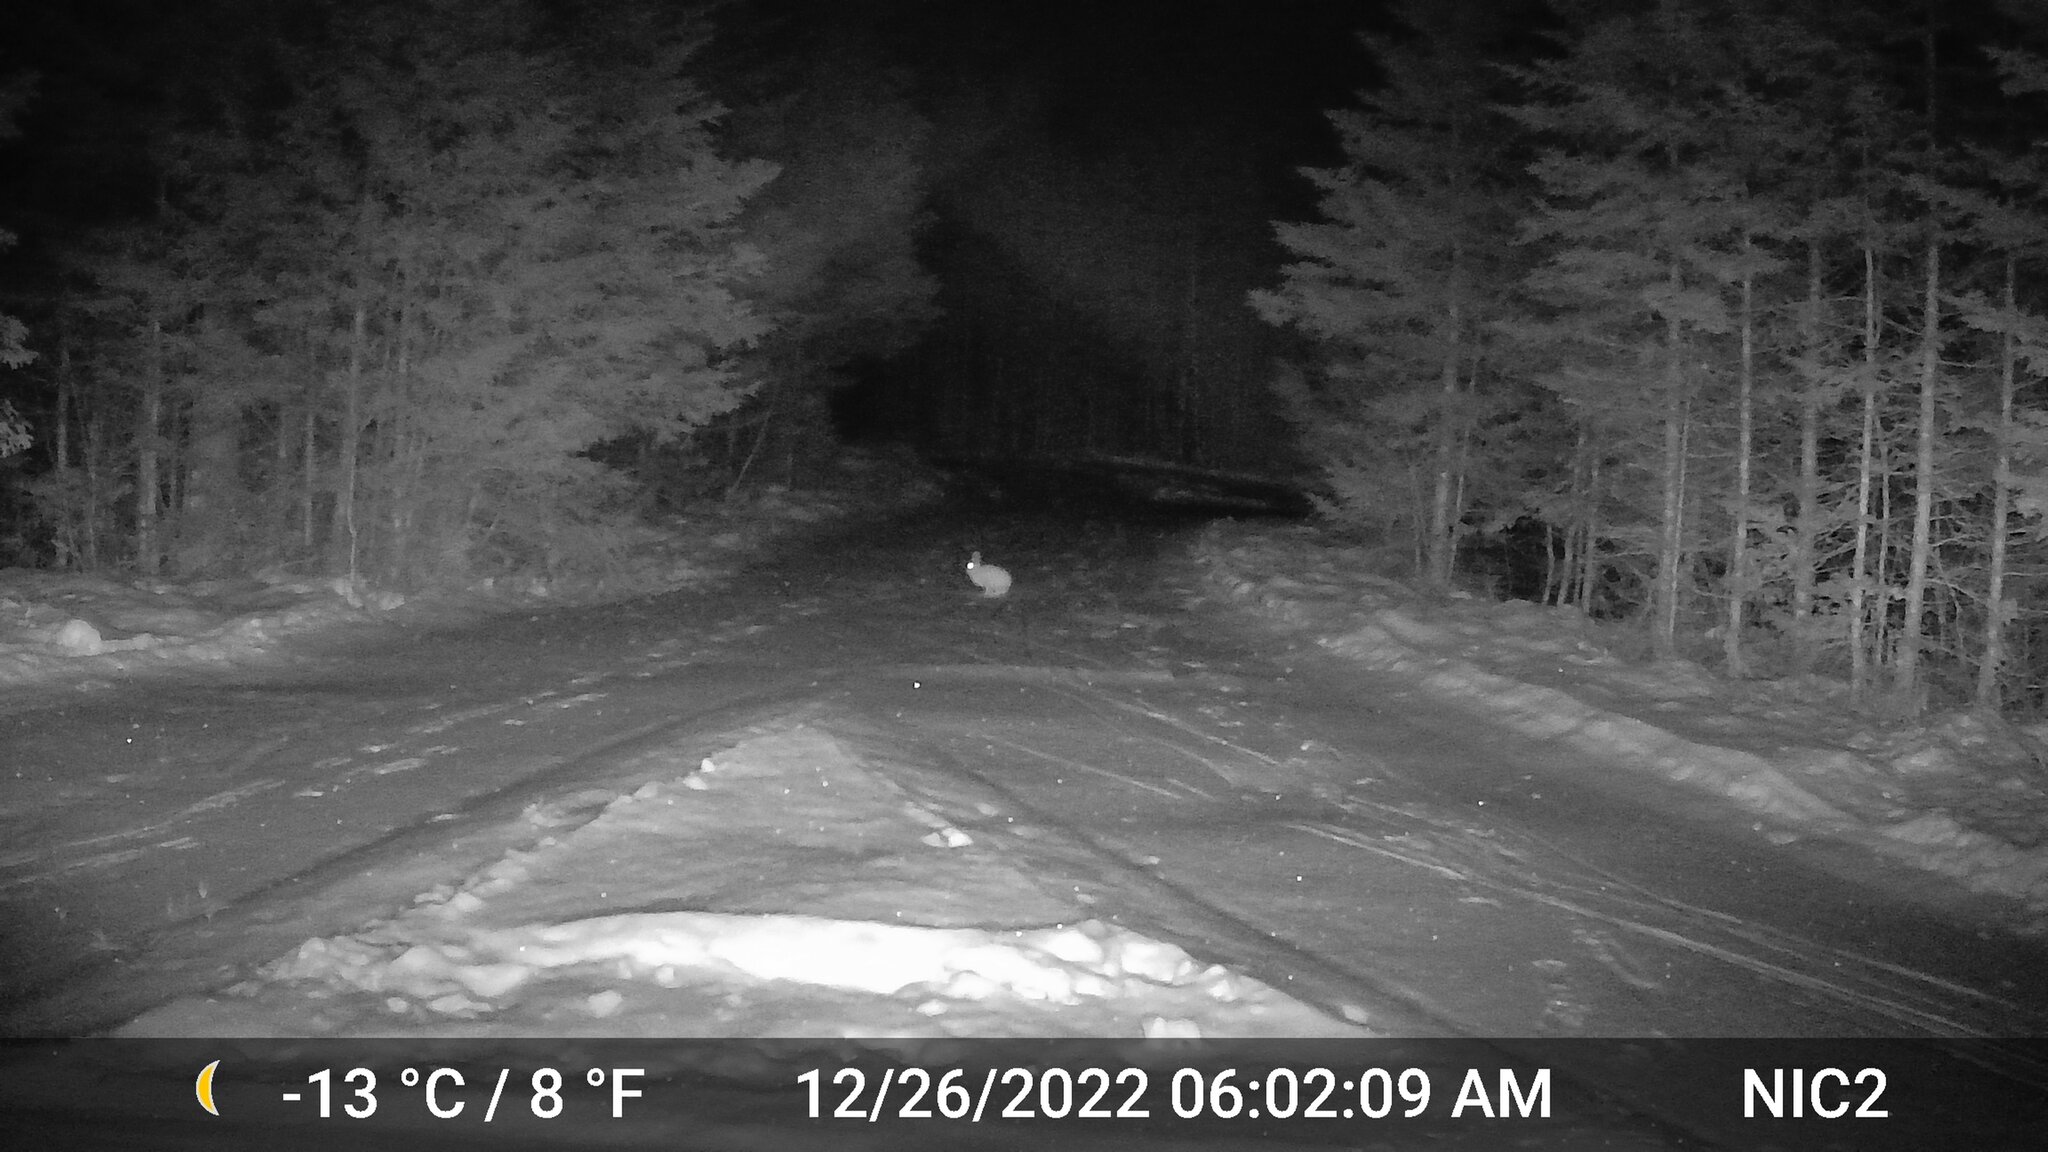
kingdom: Animalia
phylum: Chordata
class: Mammalia
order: Lagomorpha
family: Leporidae
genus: Lepus
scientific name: Lepus americanus
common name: Snowshoe hare
